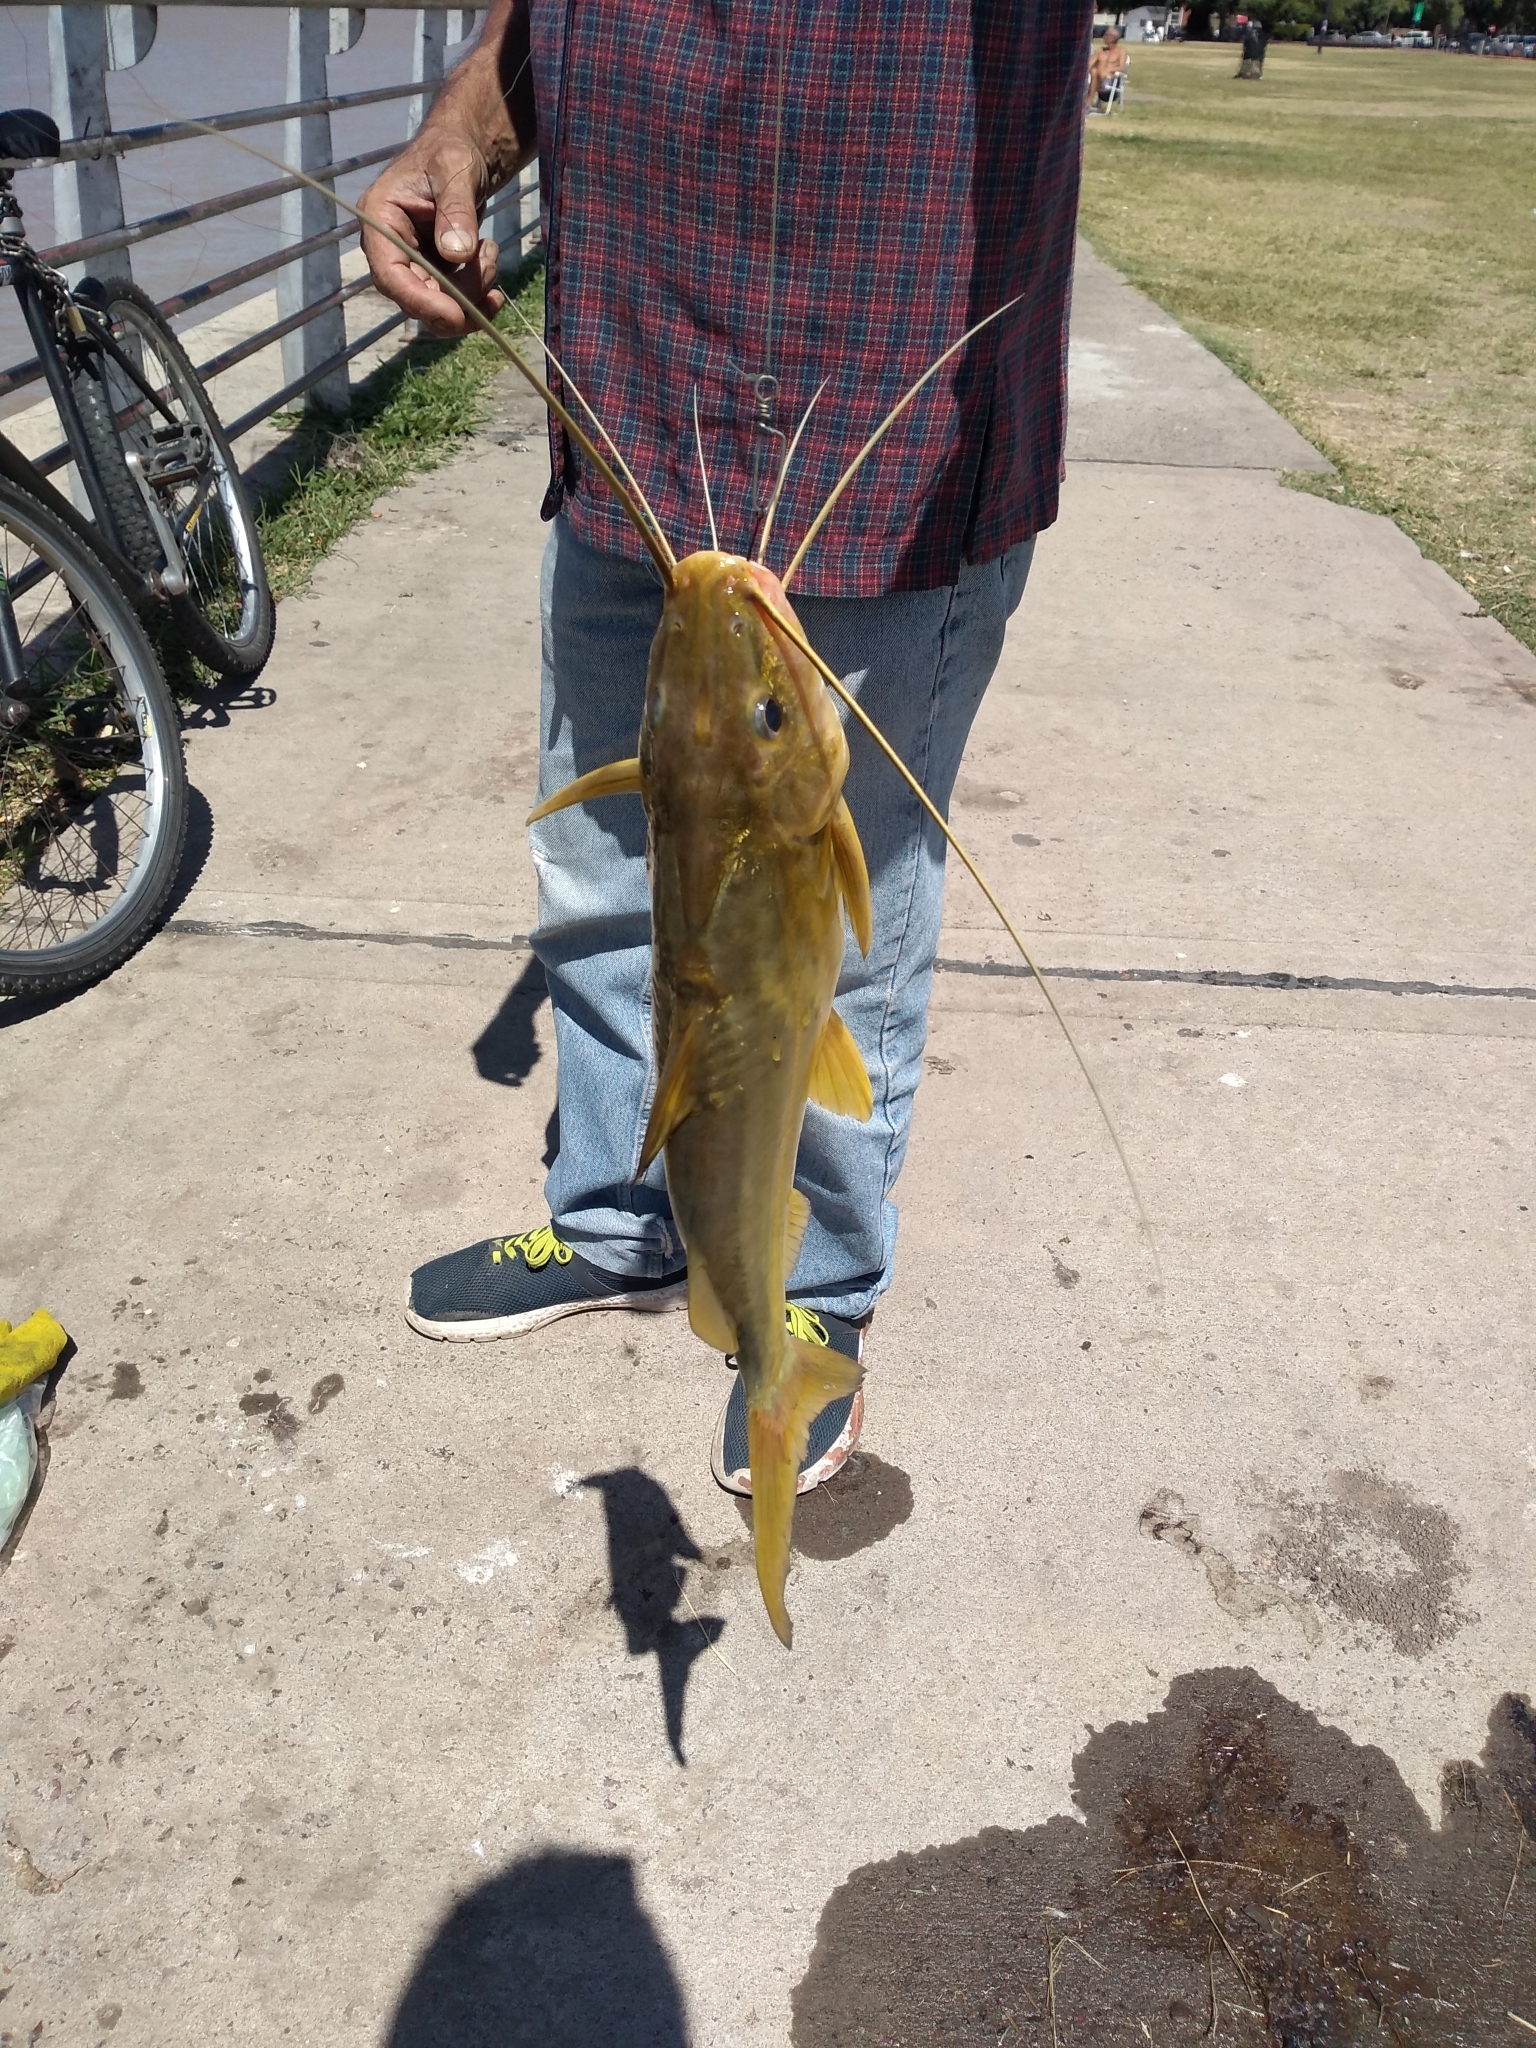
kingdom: Animalia
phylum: Chordata
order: Siluriformes
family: Pimelodidae
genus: Pimelodus
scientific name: Pimelodus maculatus
